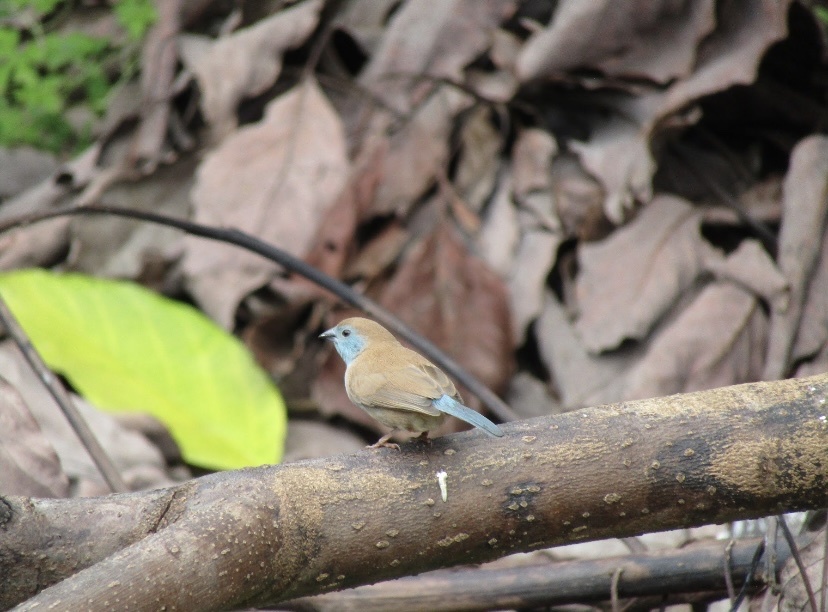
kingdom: Animalia
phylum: Chordata
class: Aves
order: Passeriformes
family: Estrildidae
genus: Uraeginthus
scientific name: Uraeginthus angolensis
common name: Blue waxbill
